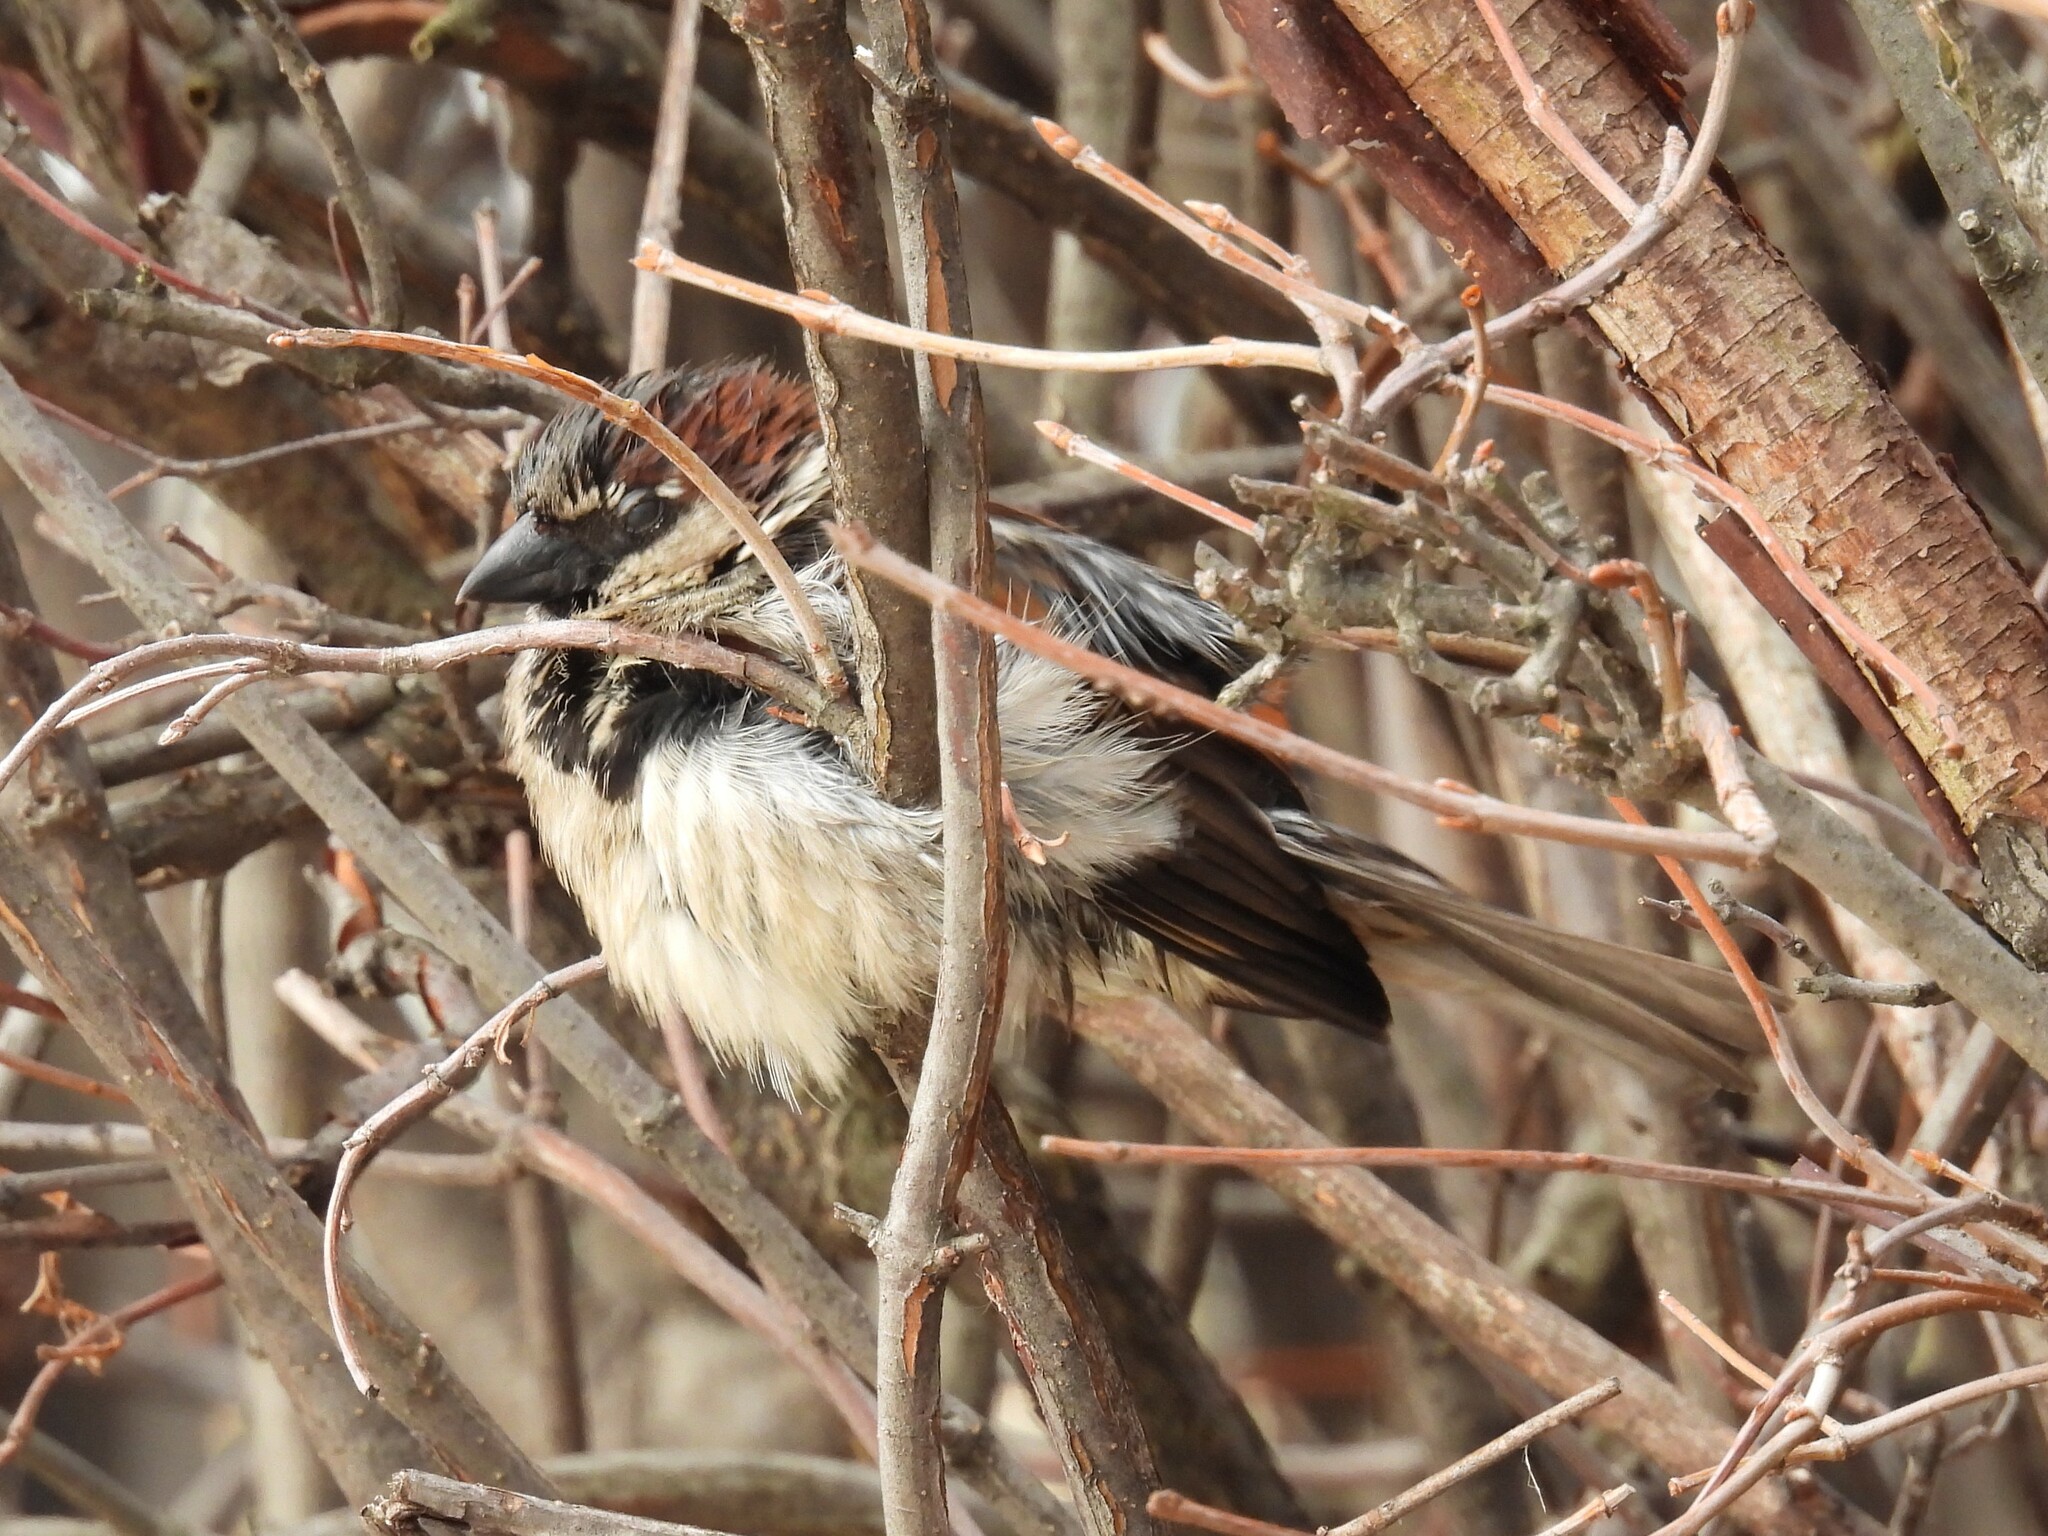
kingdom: Animalia
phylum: Chordata
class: Aves
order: Passeriformes
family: Passeridae
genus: Passer
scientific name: Passer domesticus
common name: House sparrow
